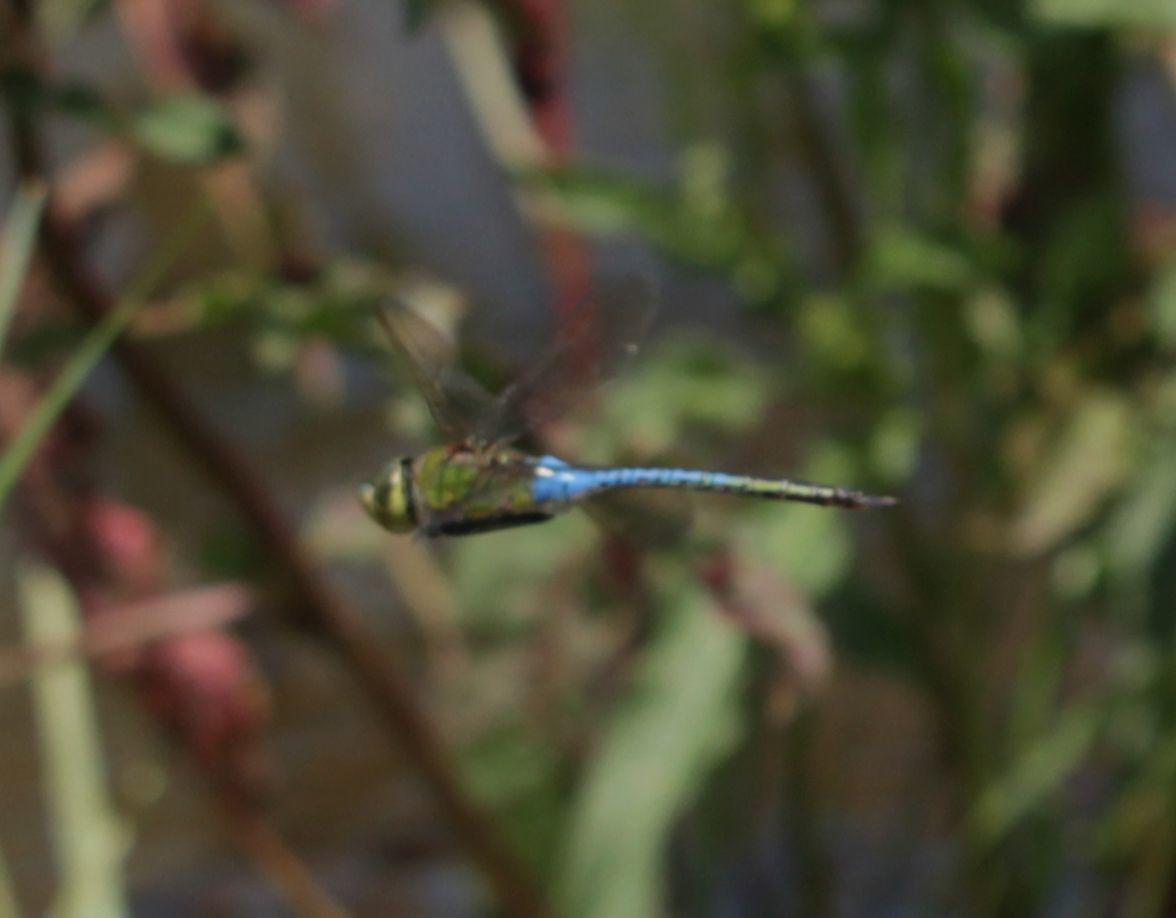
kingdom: Animalia
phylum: Arthropoda
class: Insecta
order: Odonata
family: Aeshnidae
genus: Anax
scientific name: Anax junius
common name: Common green darner
